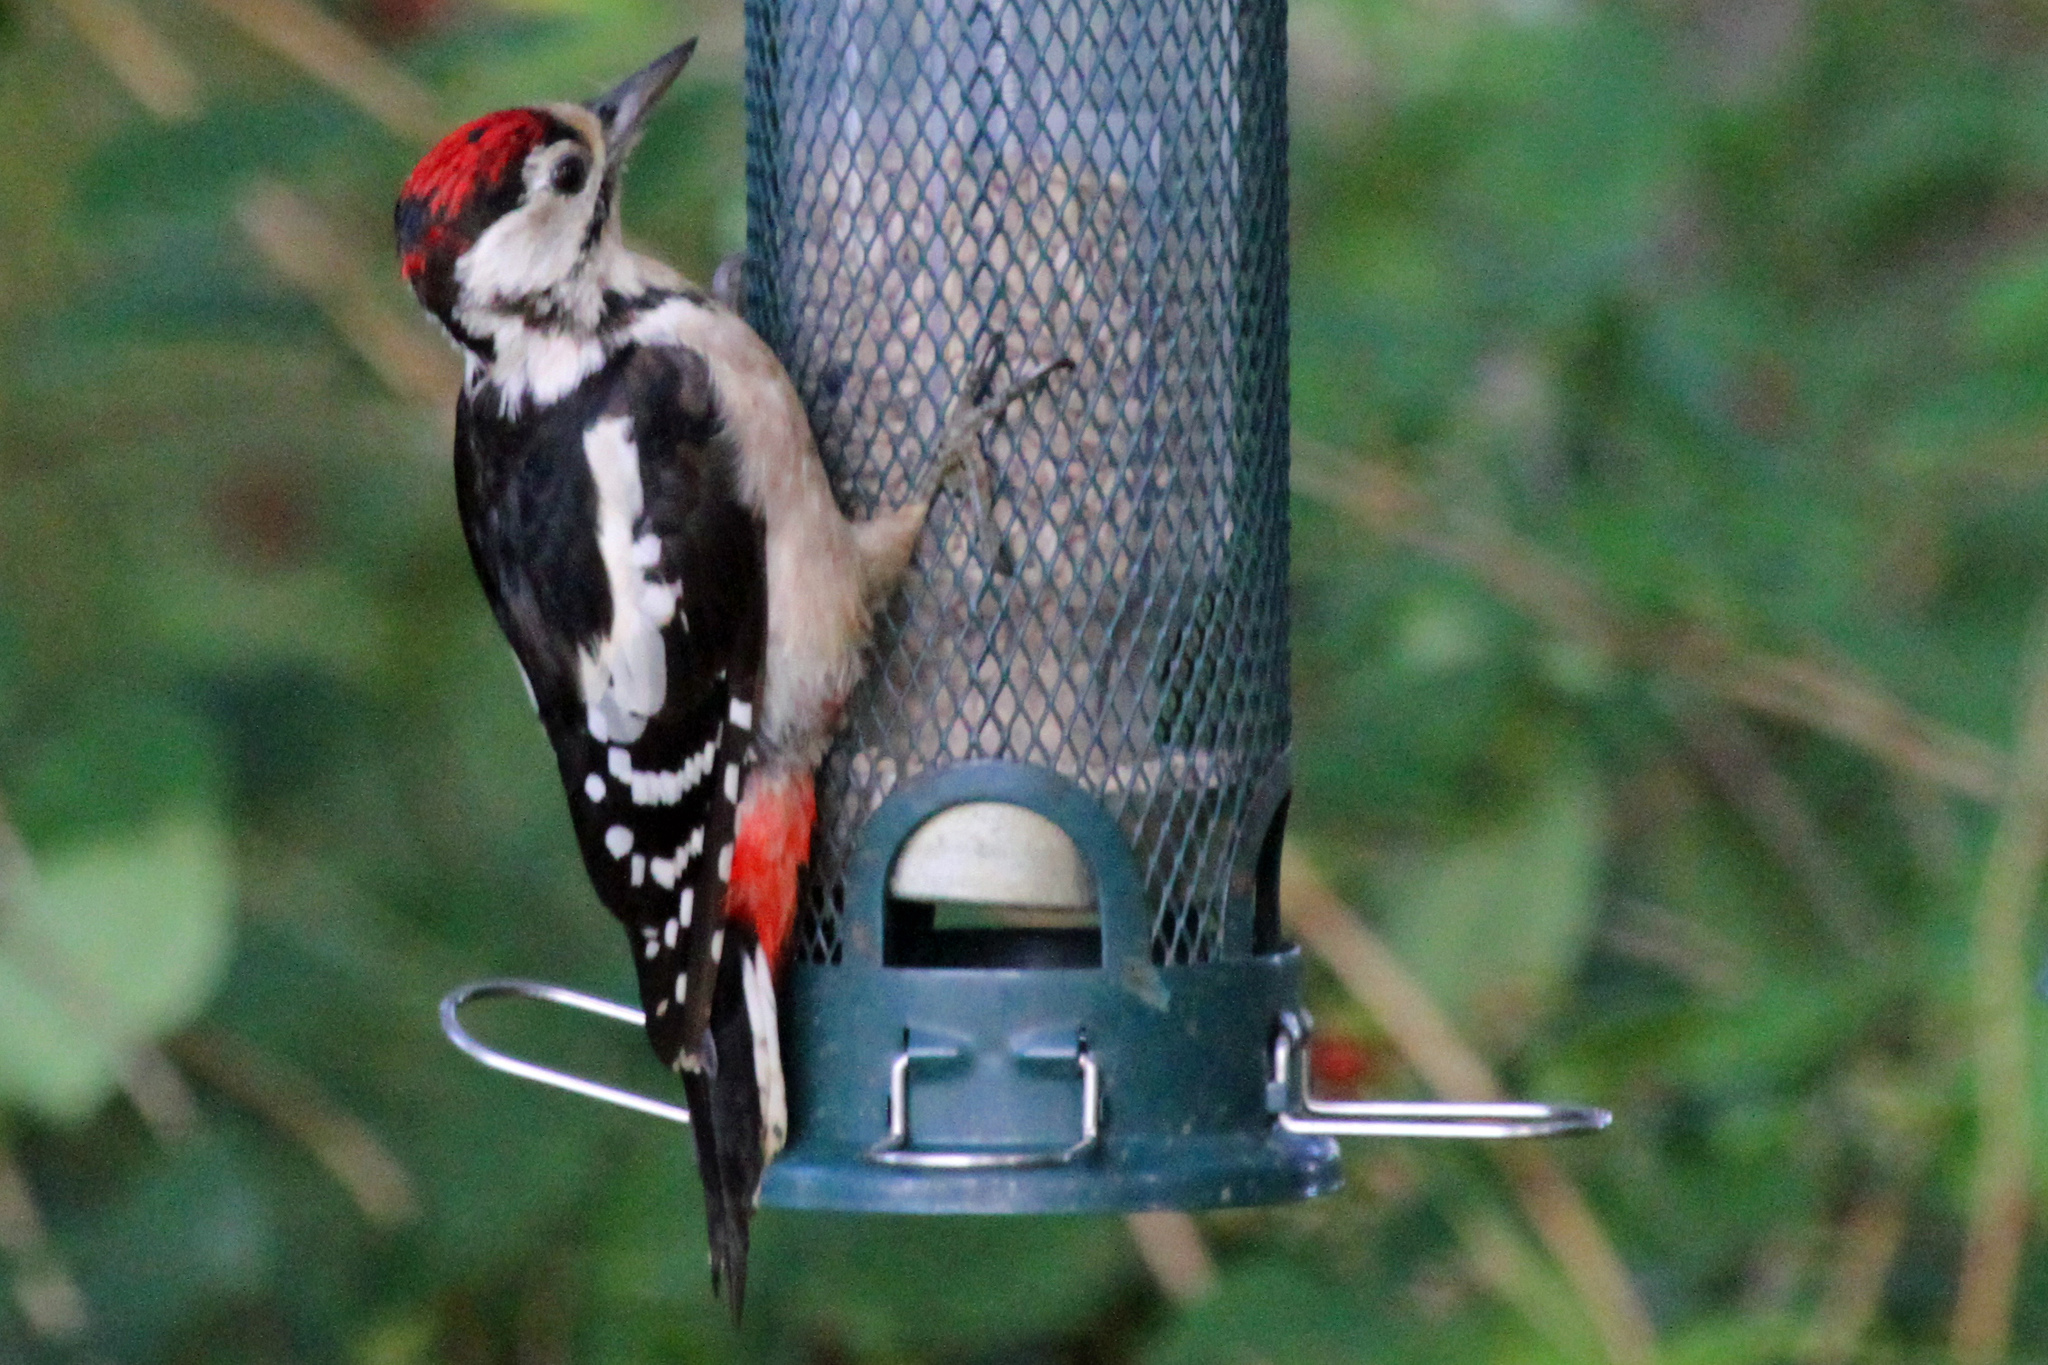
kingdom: Animalia
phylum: Chordata
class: Aves
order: Piciformes
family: Picidae
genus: Dendrocopos
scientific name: Dendrocopos major
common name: Great spotted woodpecker
